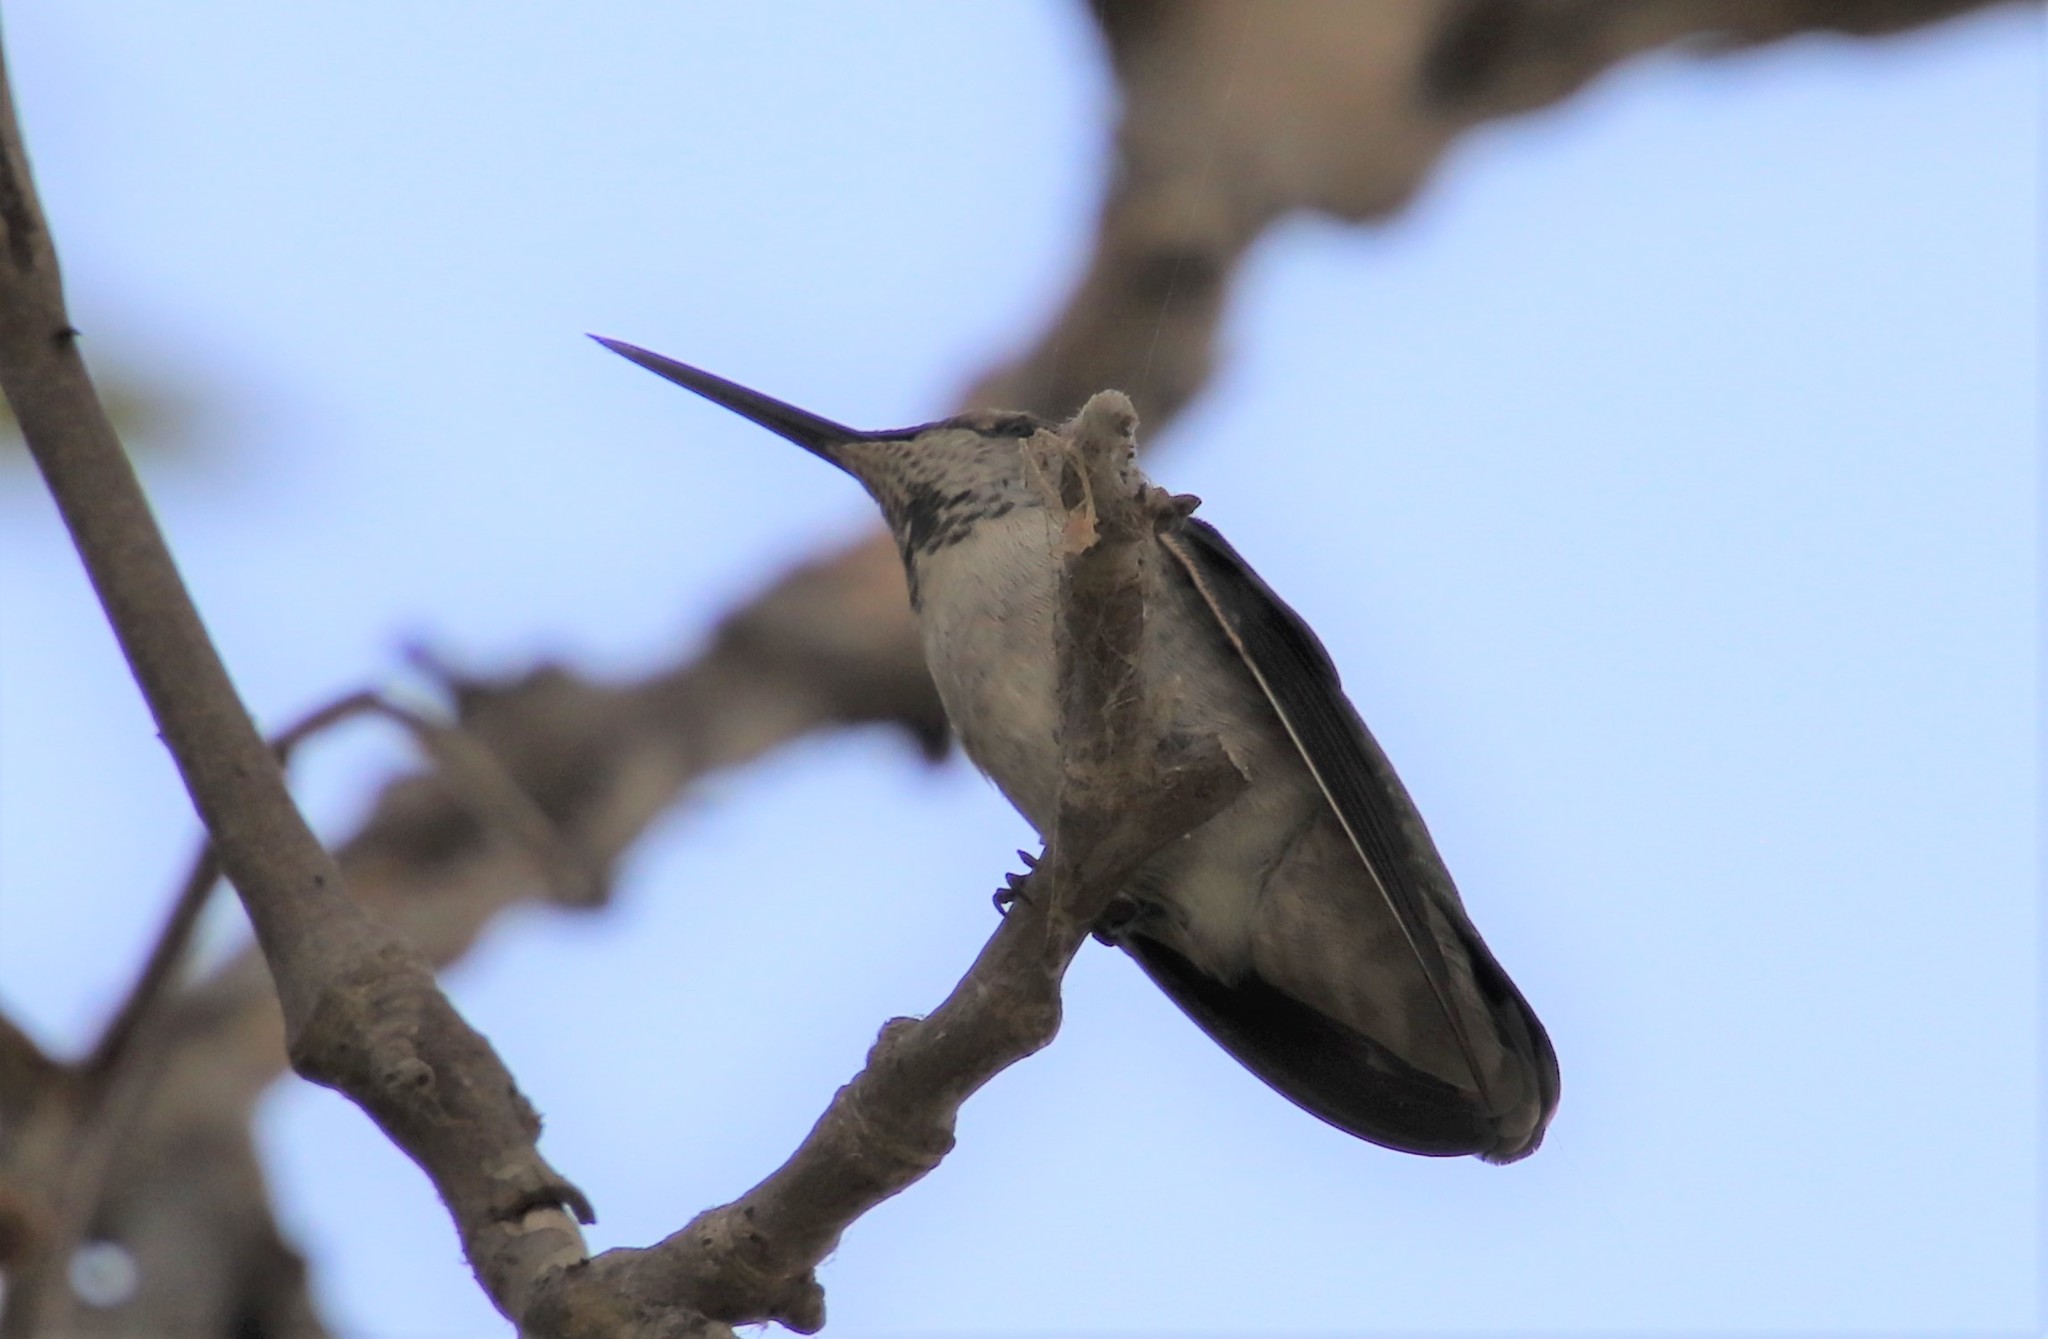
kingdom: Animalia
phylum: Chordata
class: Aves
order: Apodiformes
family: Trochilidae
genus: Calypte
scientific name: Calypte anna
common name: Anna's hummingbird
